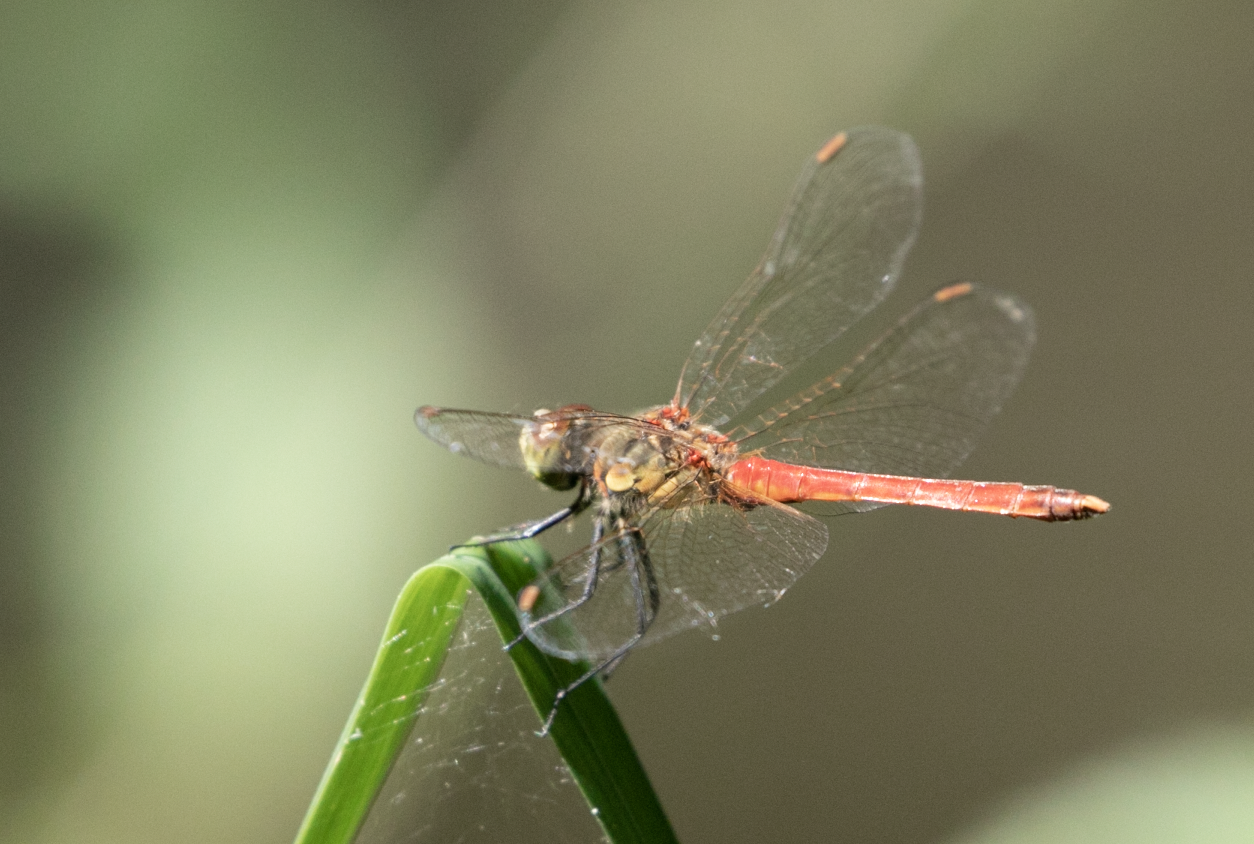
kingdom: Animalia
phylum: Arthropoda
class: Insecta
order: Odonata
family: Libellulidae
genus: Sympetrum
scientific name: Sympetrum sanguineum
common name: Ruddy darter
